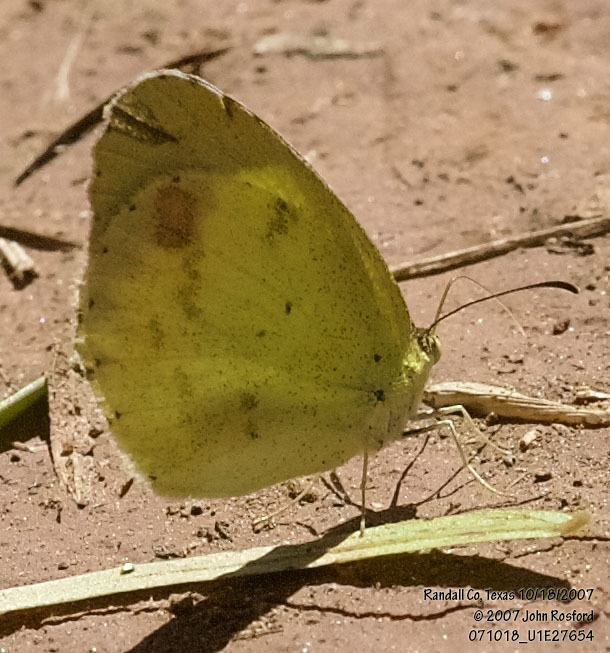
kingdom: Animalia
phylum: Arthropoda
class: Insecta
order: Lepidoptera
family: Pieridae
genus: Pyrisitia
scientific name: Pyrisitia lisa
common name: Little yellow
